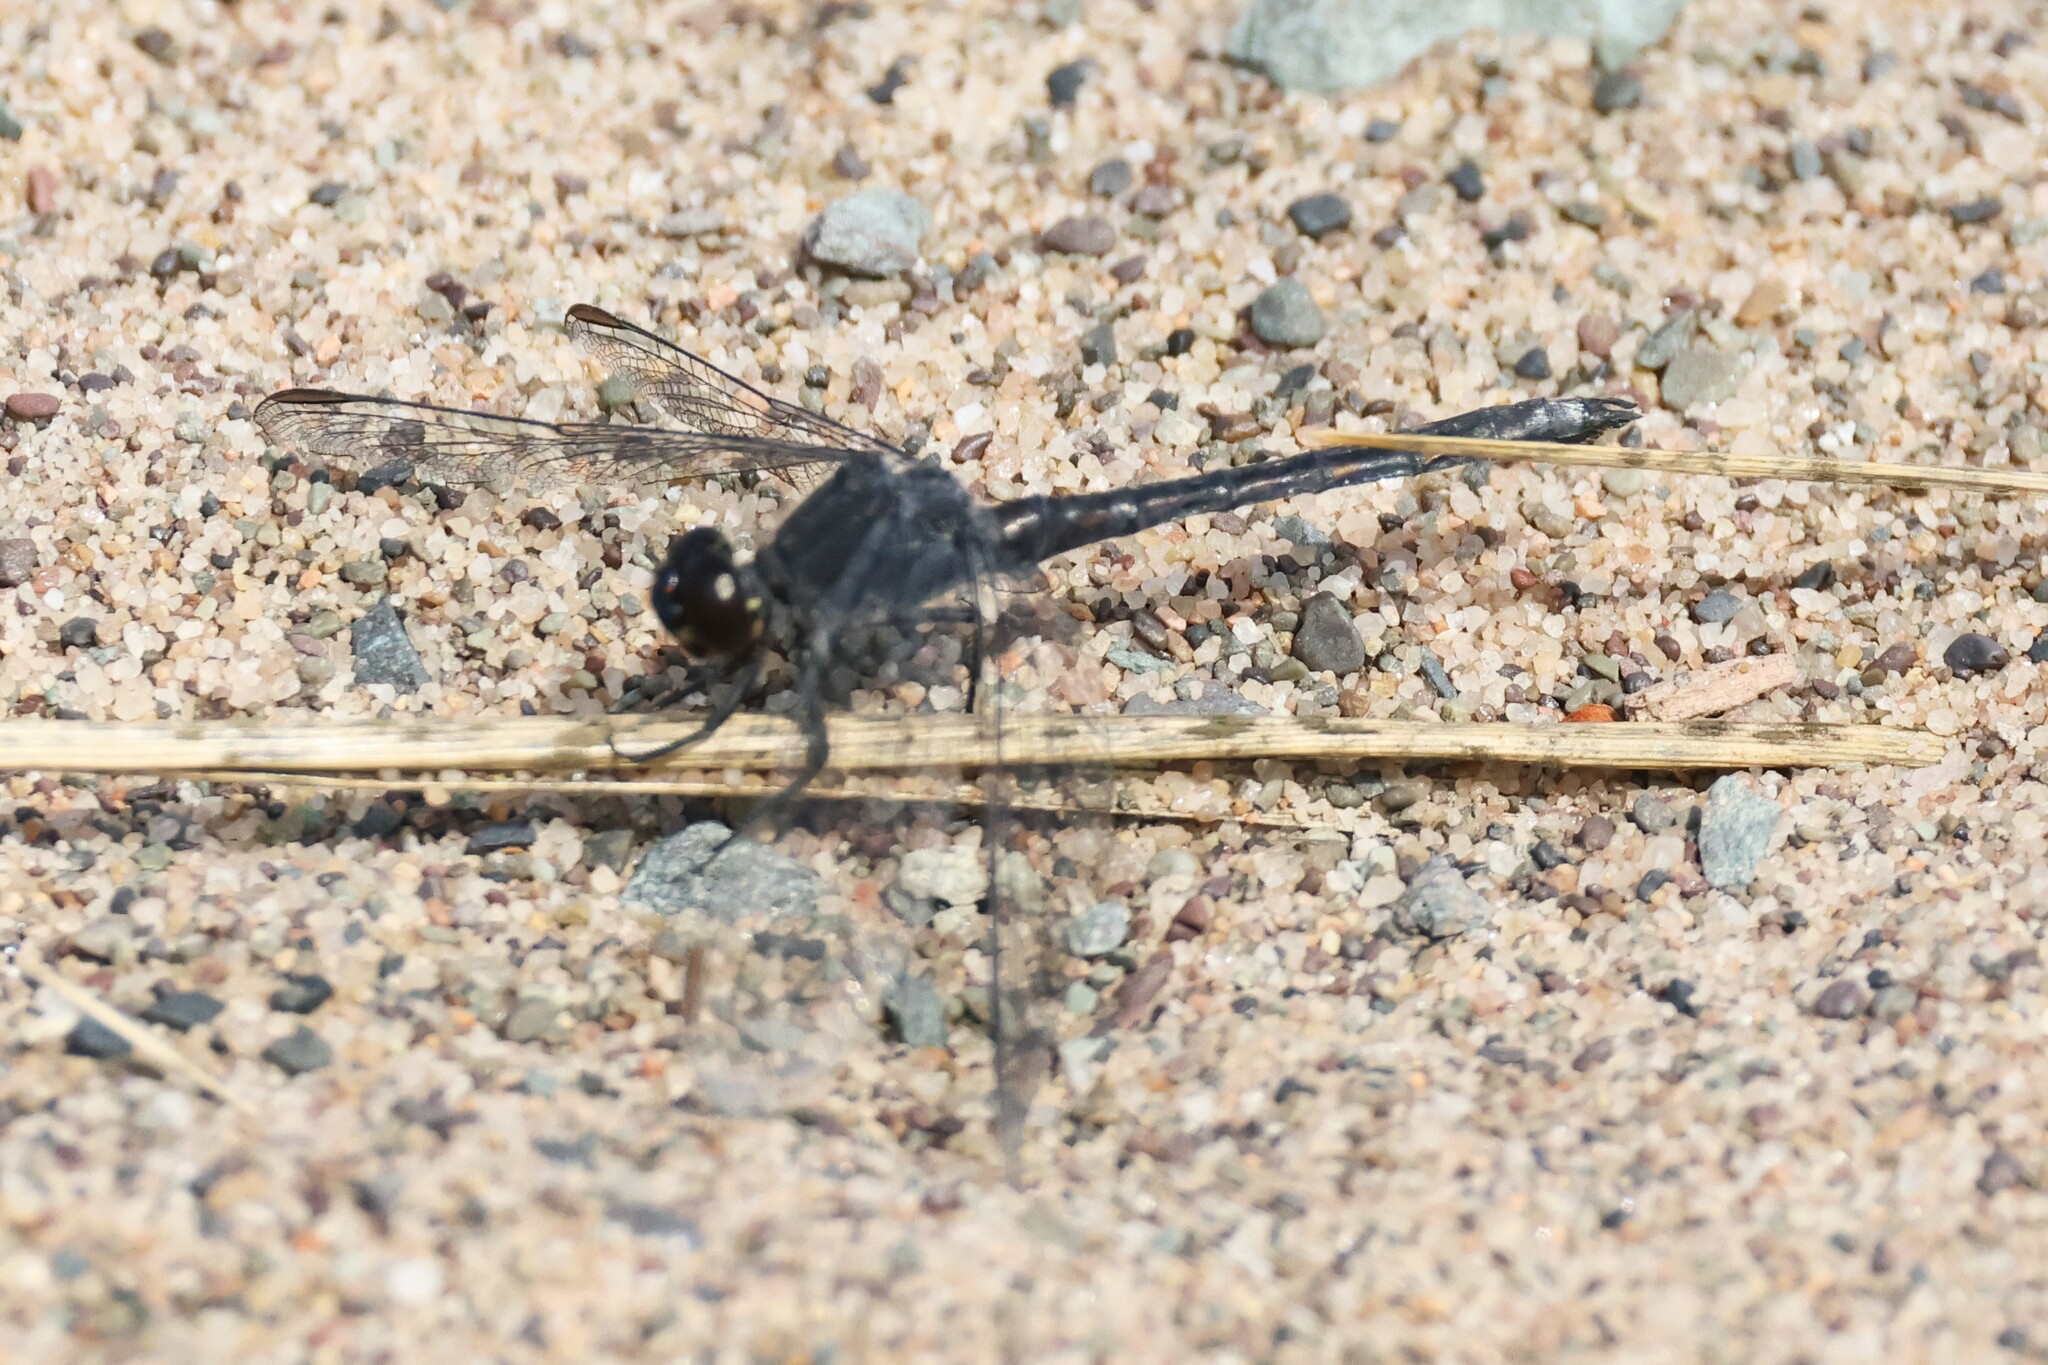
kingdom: Animalia
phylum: Arthropoda
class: Insecta
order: Odonata
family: Libellulidae
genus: Erythrodiplax
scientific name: Erythrodiplax berenice
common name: Seaside dragonlet
